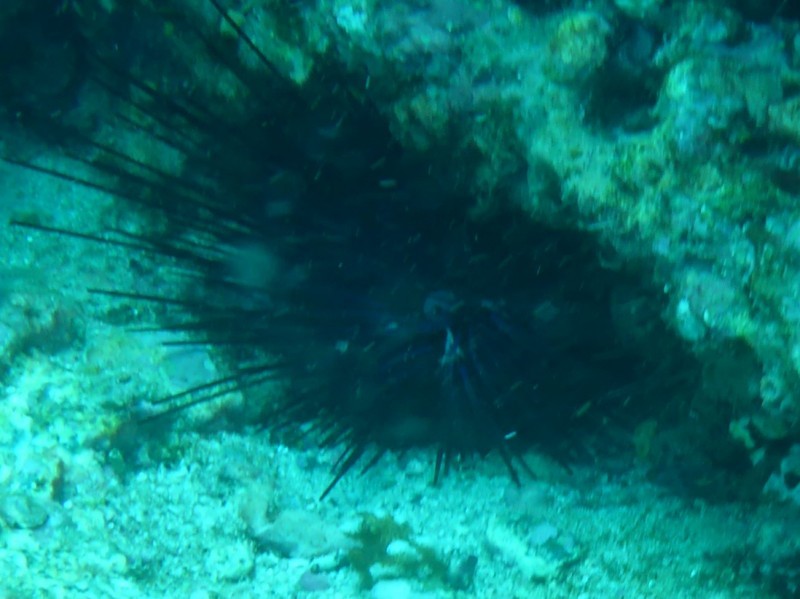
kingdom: Animalia
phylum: Echinodermata
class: Echinoidea
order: Diadematoida
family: Diadematidae
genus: Centrostephanus
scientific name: Centrostephanus coronatus
